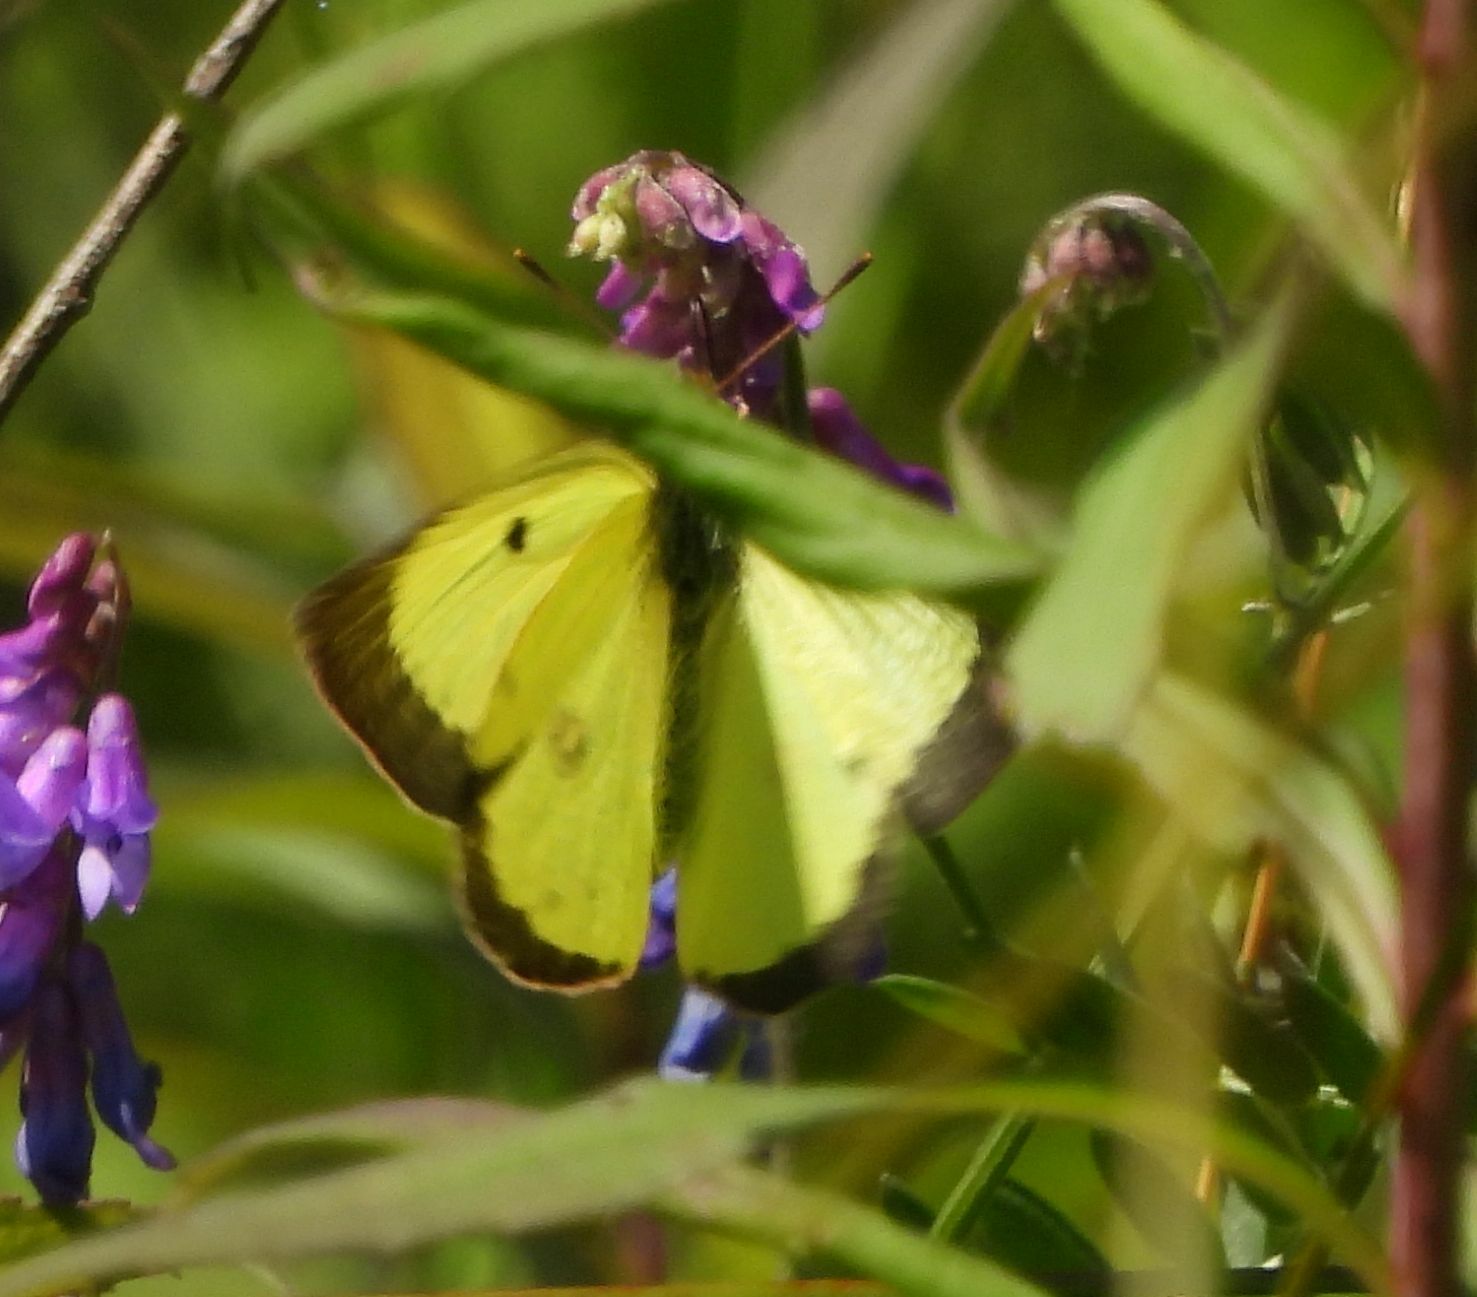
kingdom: Animalia
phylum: Arthropoda
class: Insecta
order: Lepidoptera
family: Pieridae
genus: Colias
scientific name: Colias philodice
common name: Clouded sulphur
